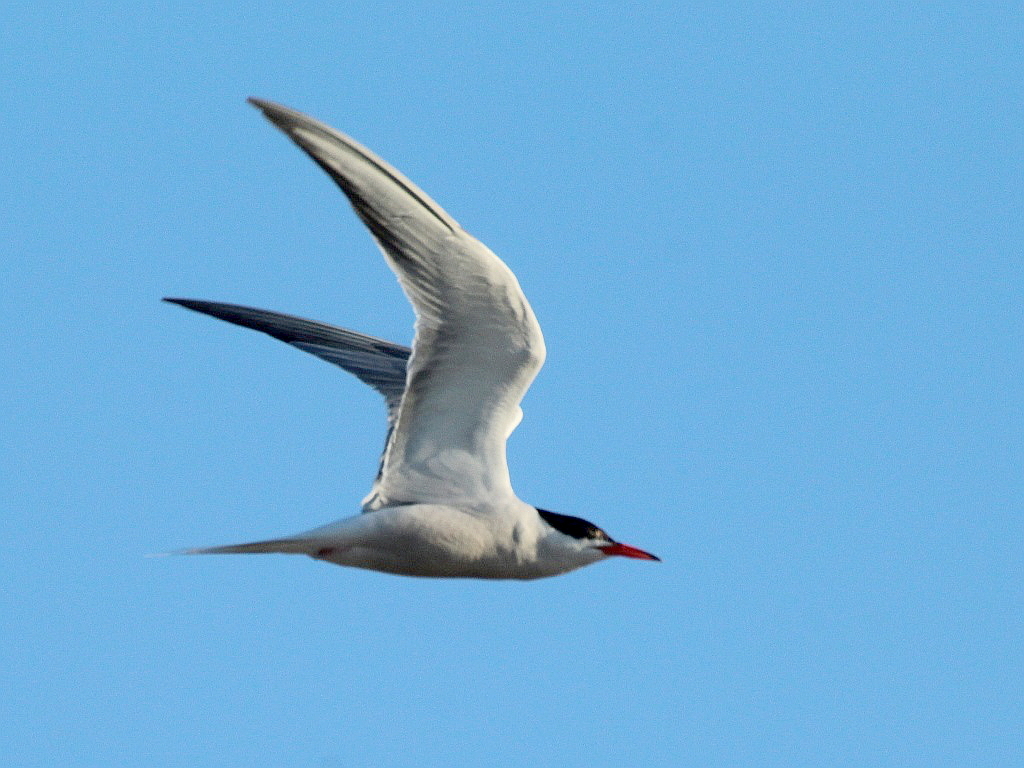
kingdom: Animalia
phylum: Chordata
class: Aves
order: Charadriiformes
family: Laridae
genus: Sterna
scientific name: Sterna hirundo
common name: Common tern
